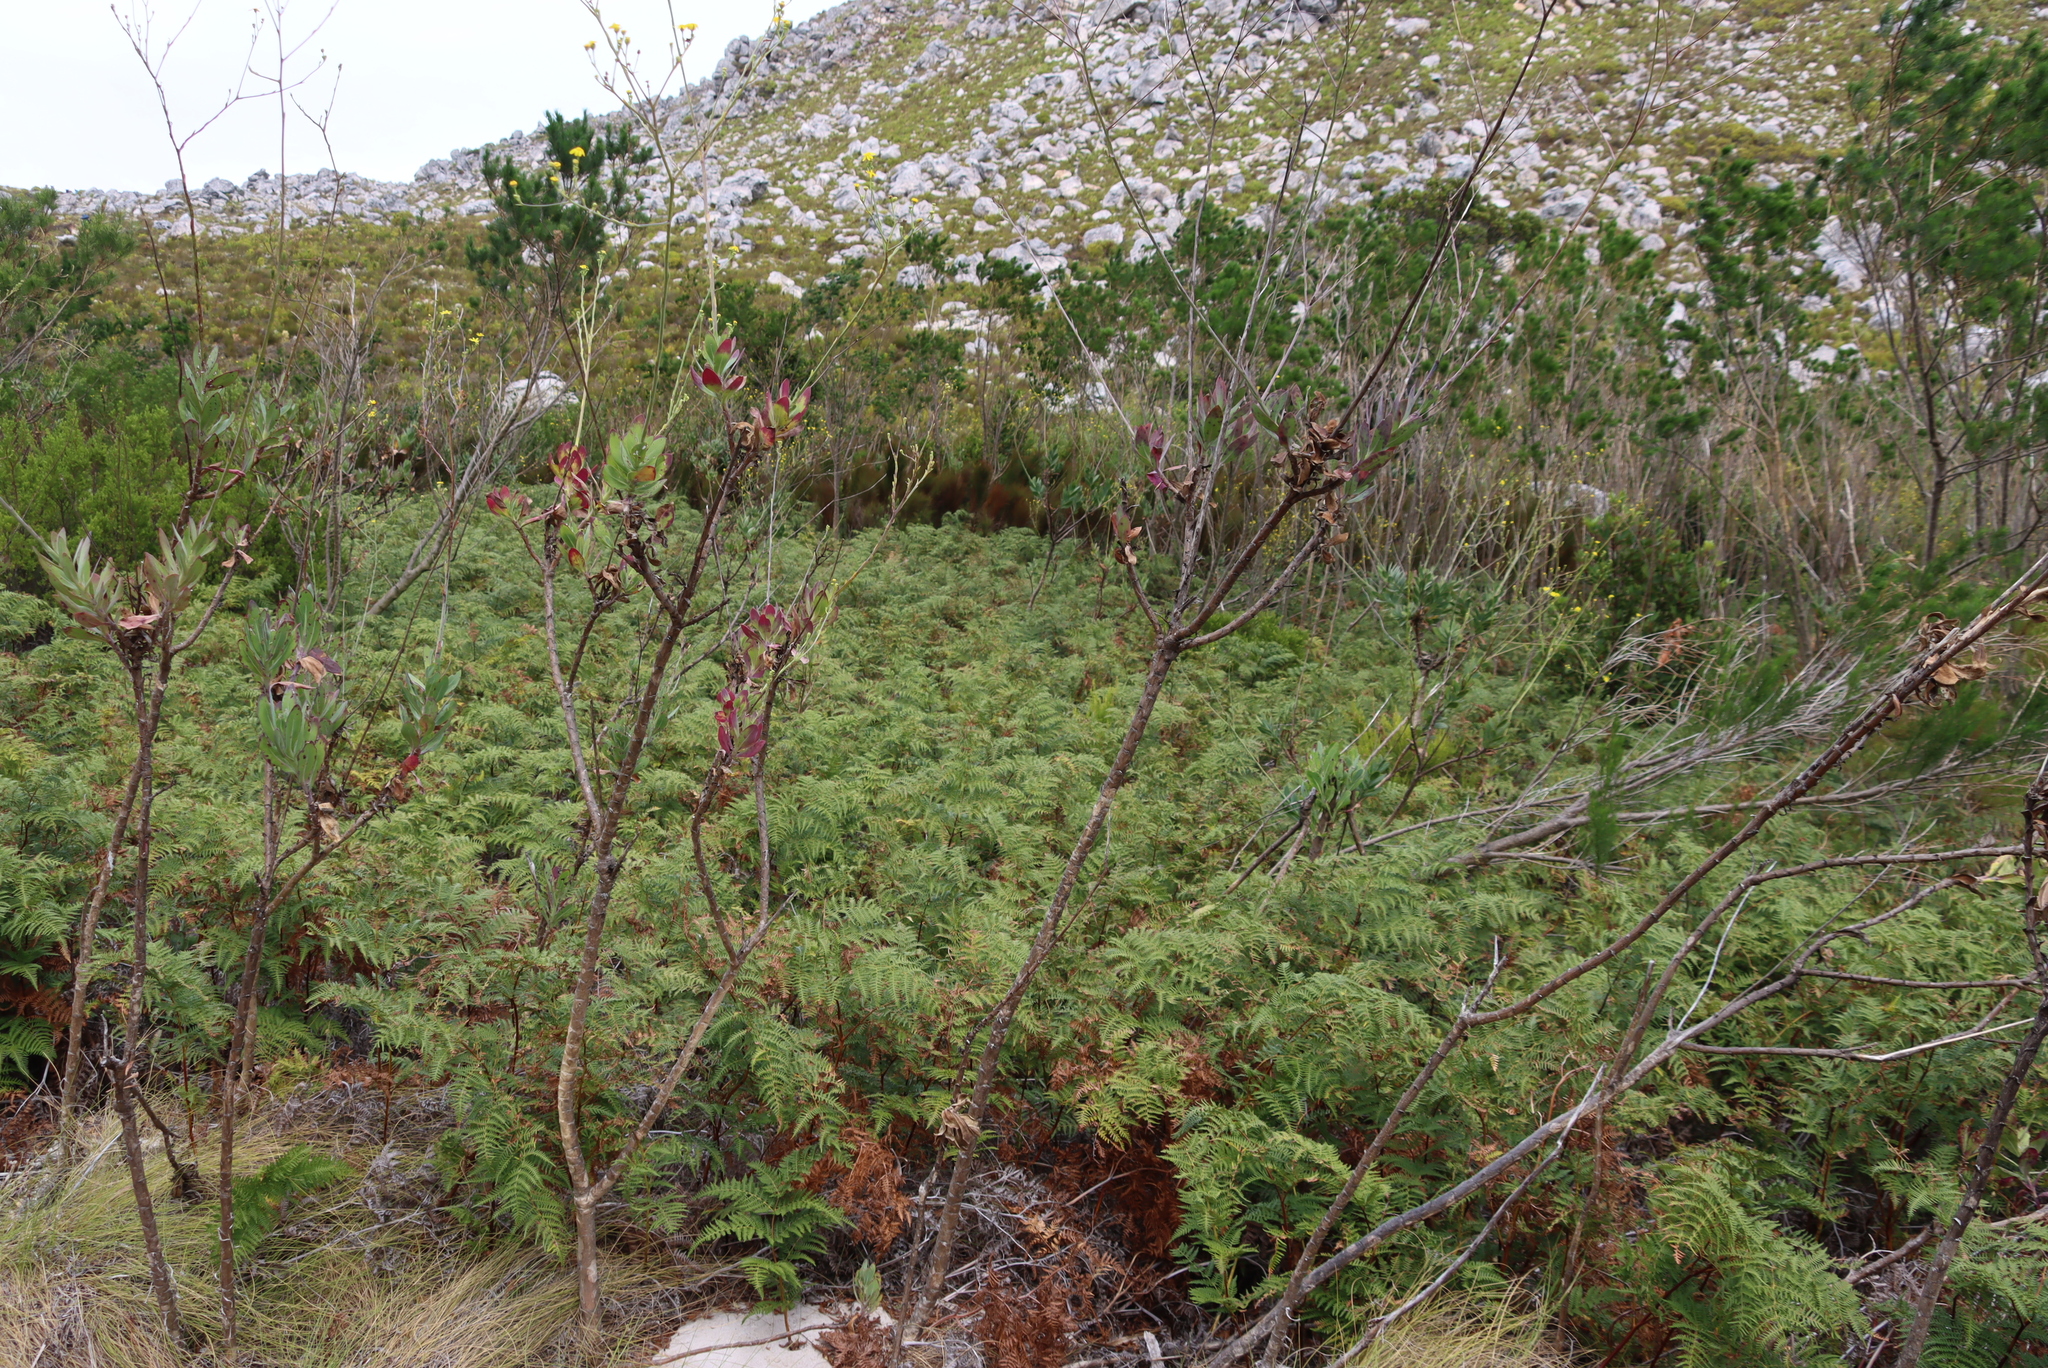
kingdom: Plantae
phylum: Tracheophyta
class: Polypodiopsida
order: Polypodiales
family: Dennstaedtiaceae
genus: Pteridium
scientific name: Pteridium aquilinum
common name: Bracken
